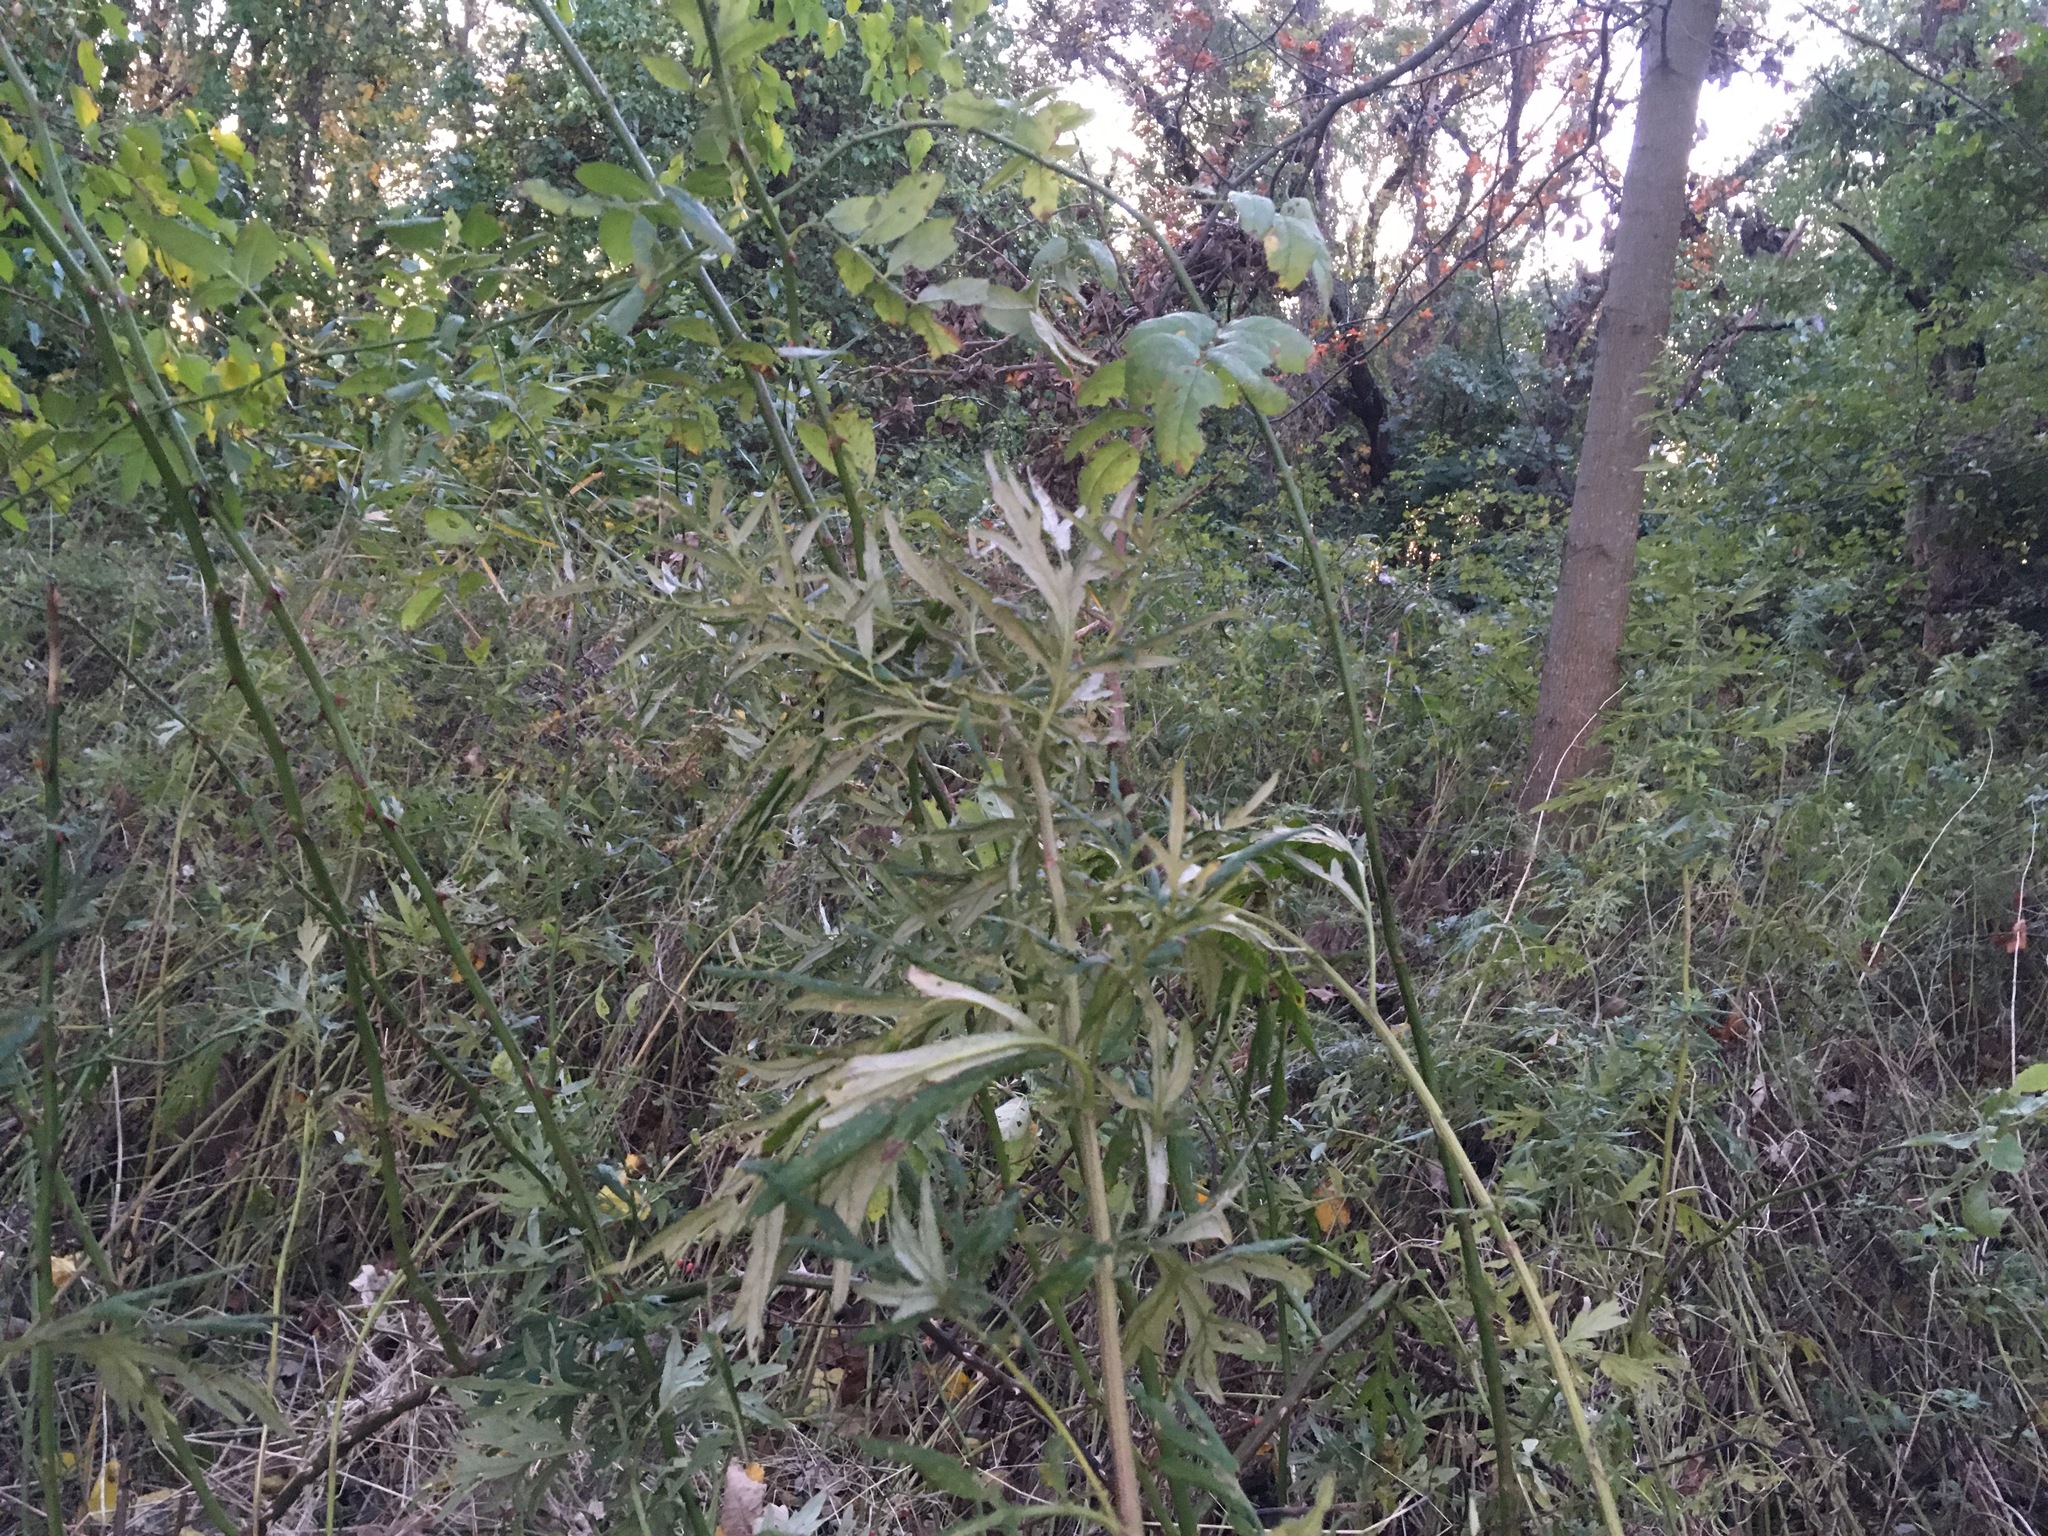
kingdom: Plantae
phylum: Tracheophyta
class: Magnoliopsida
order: Asterales
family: Asteraceae
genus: Artemisia
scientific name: Artemisia vulgaris
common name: Mugwort
